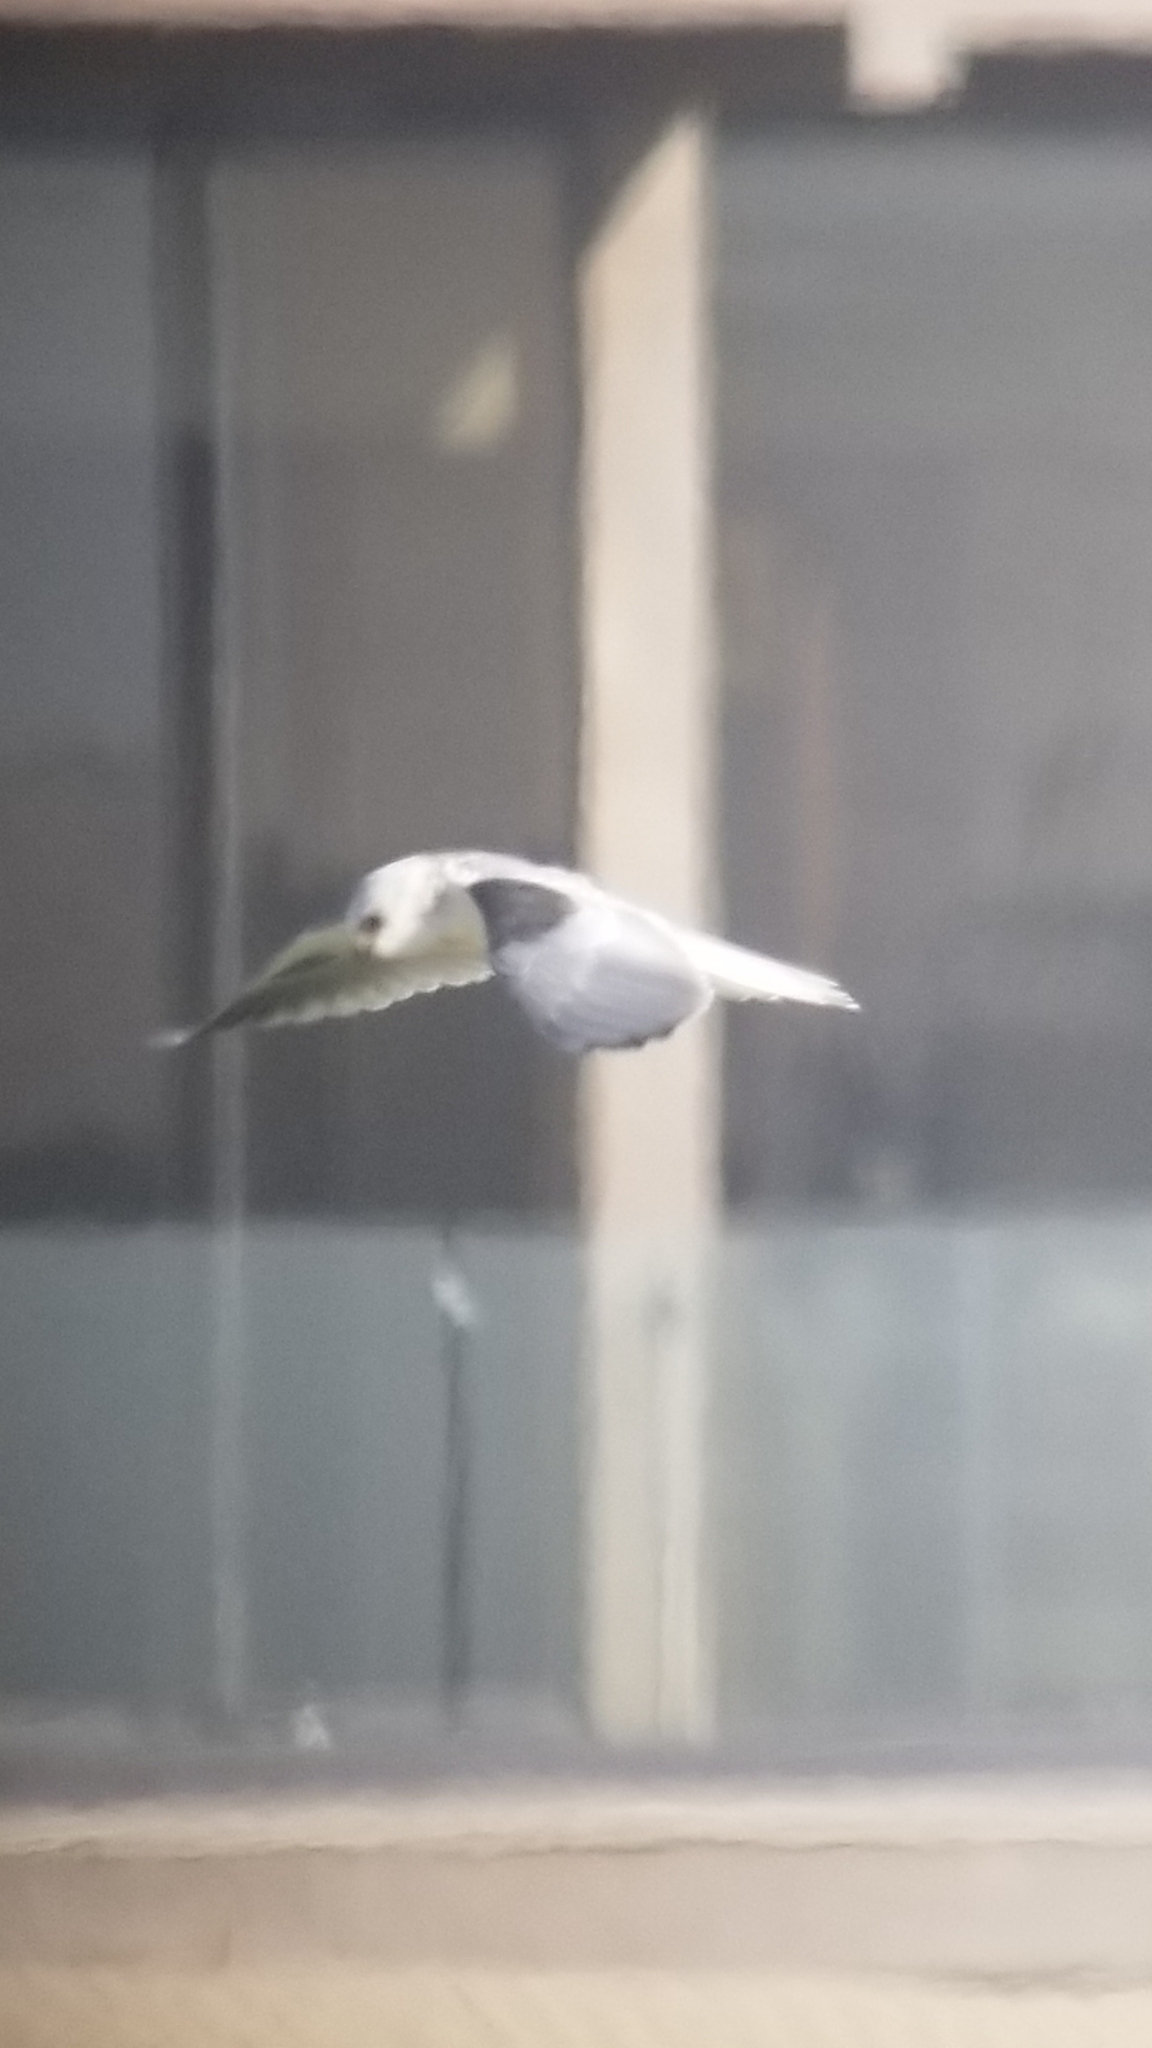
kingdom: Animalia
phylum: Chordata
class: Aves
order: Accipitriformes
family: Accipitridae
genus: Elanus
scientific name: Elanus leucurus
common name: White-tailed kite
